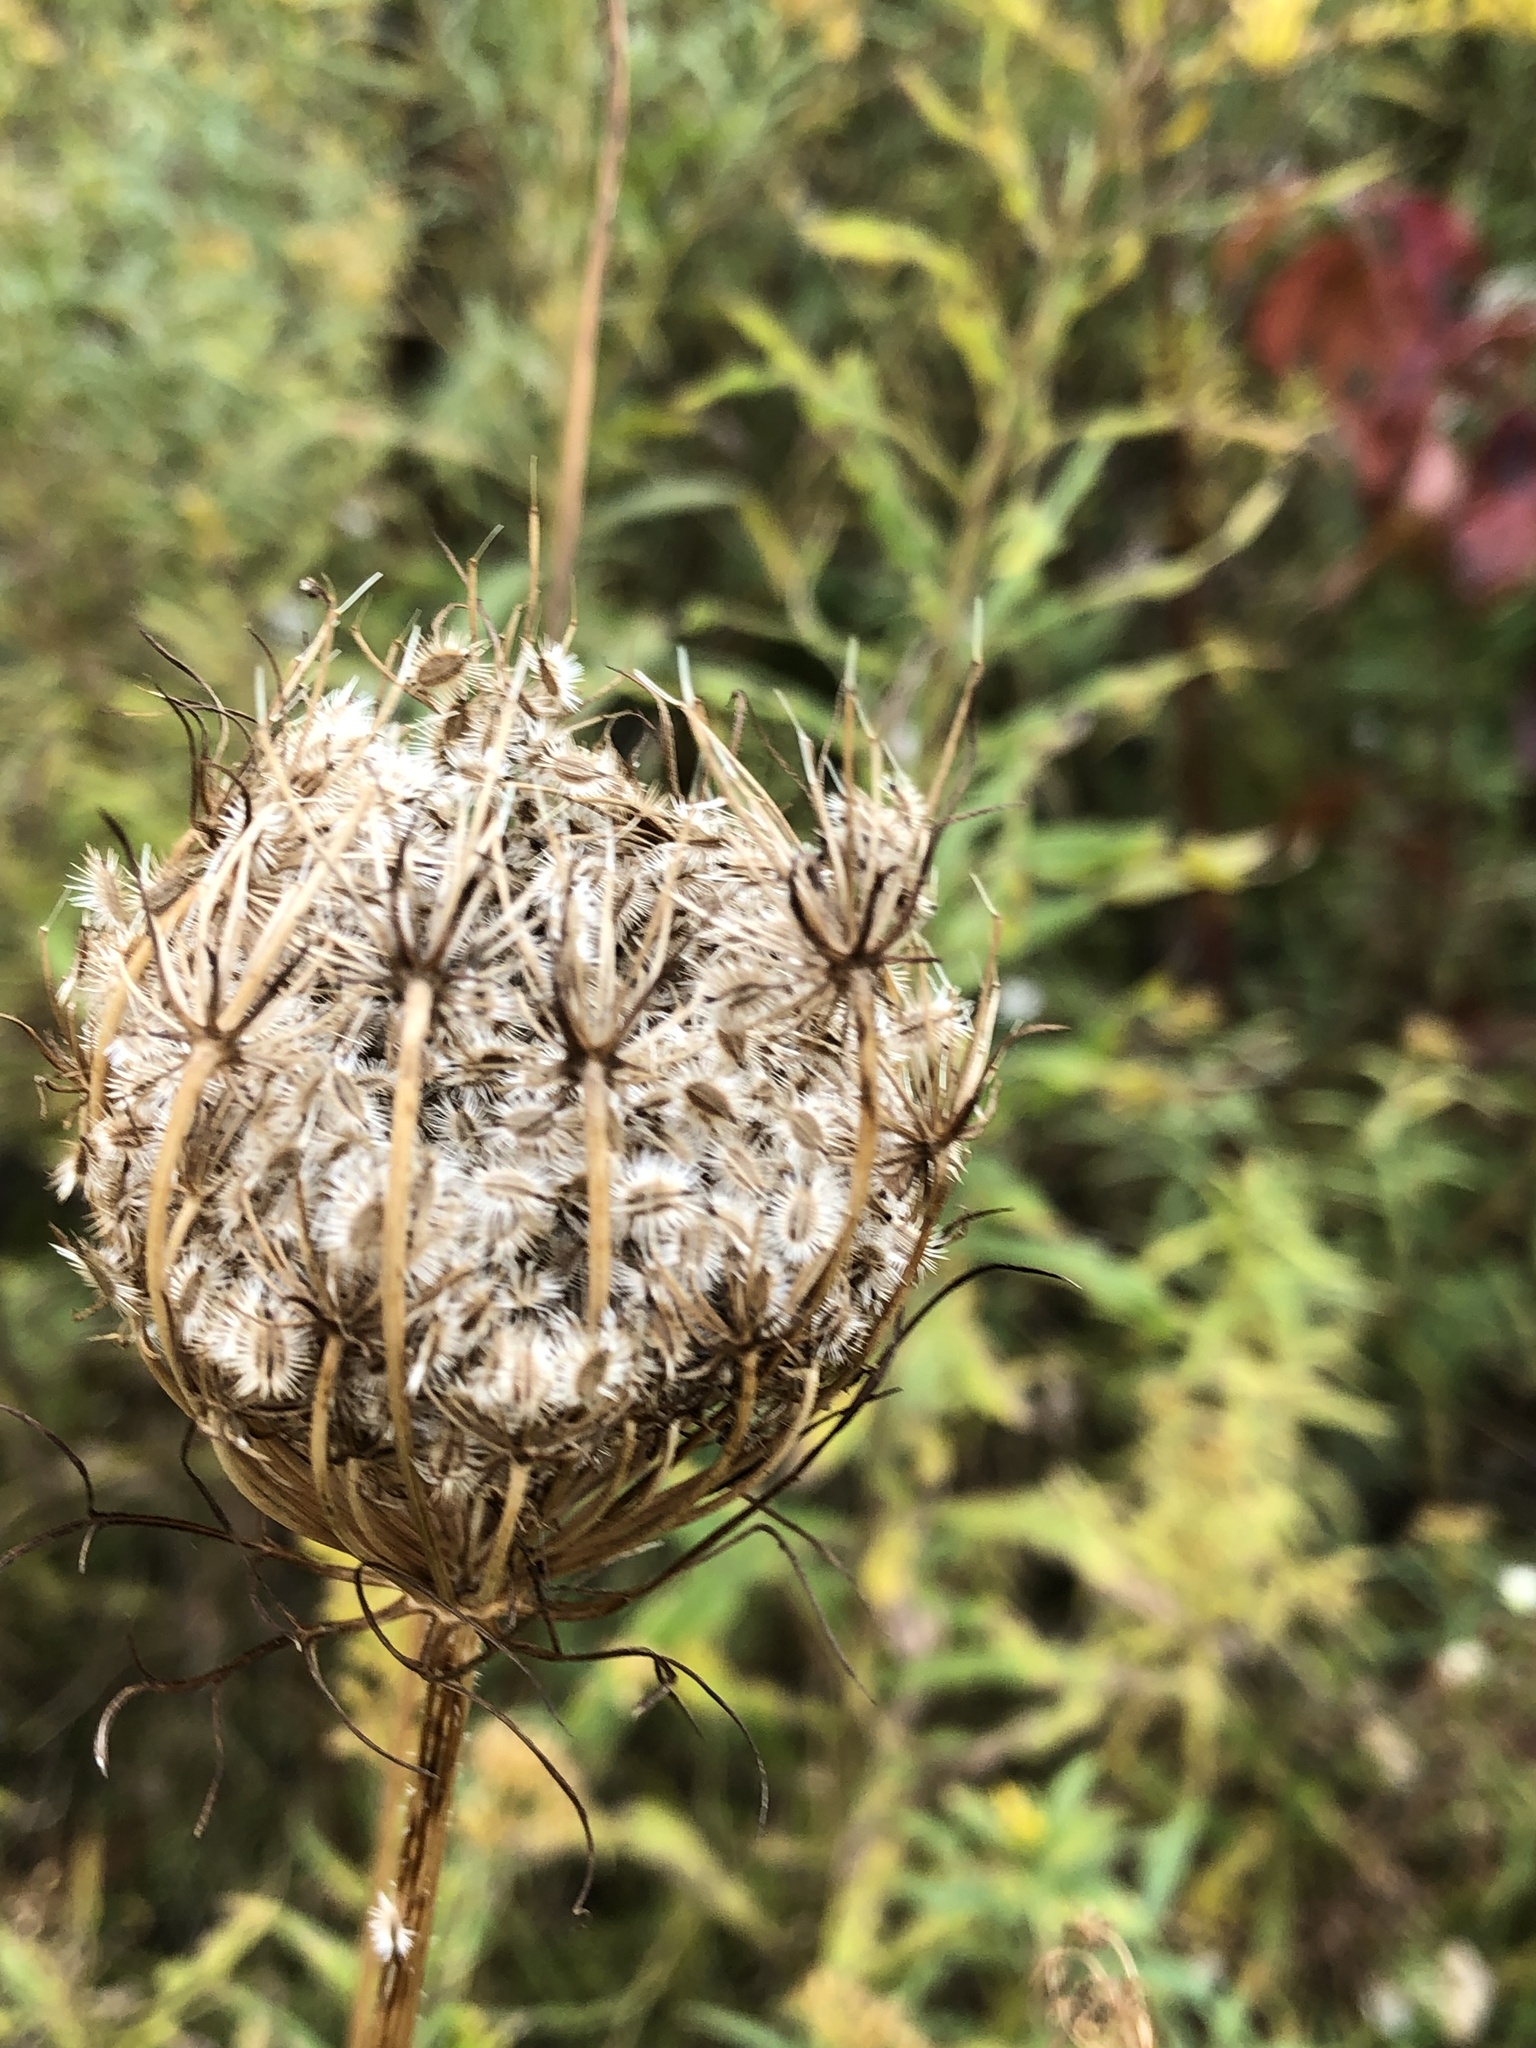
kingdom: Plantae
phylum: Tracheophyta
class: Magnoliopsida
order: Apiales
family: Apiaceae
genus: Daucus
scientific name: Daucus carota
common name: Wild carrot
